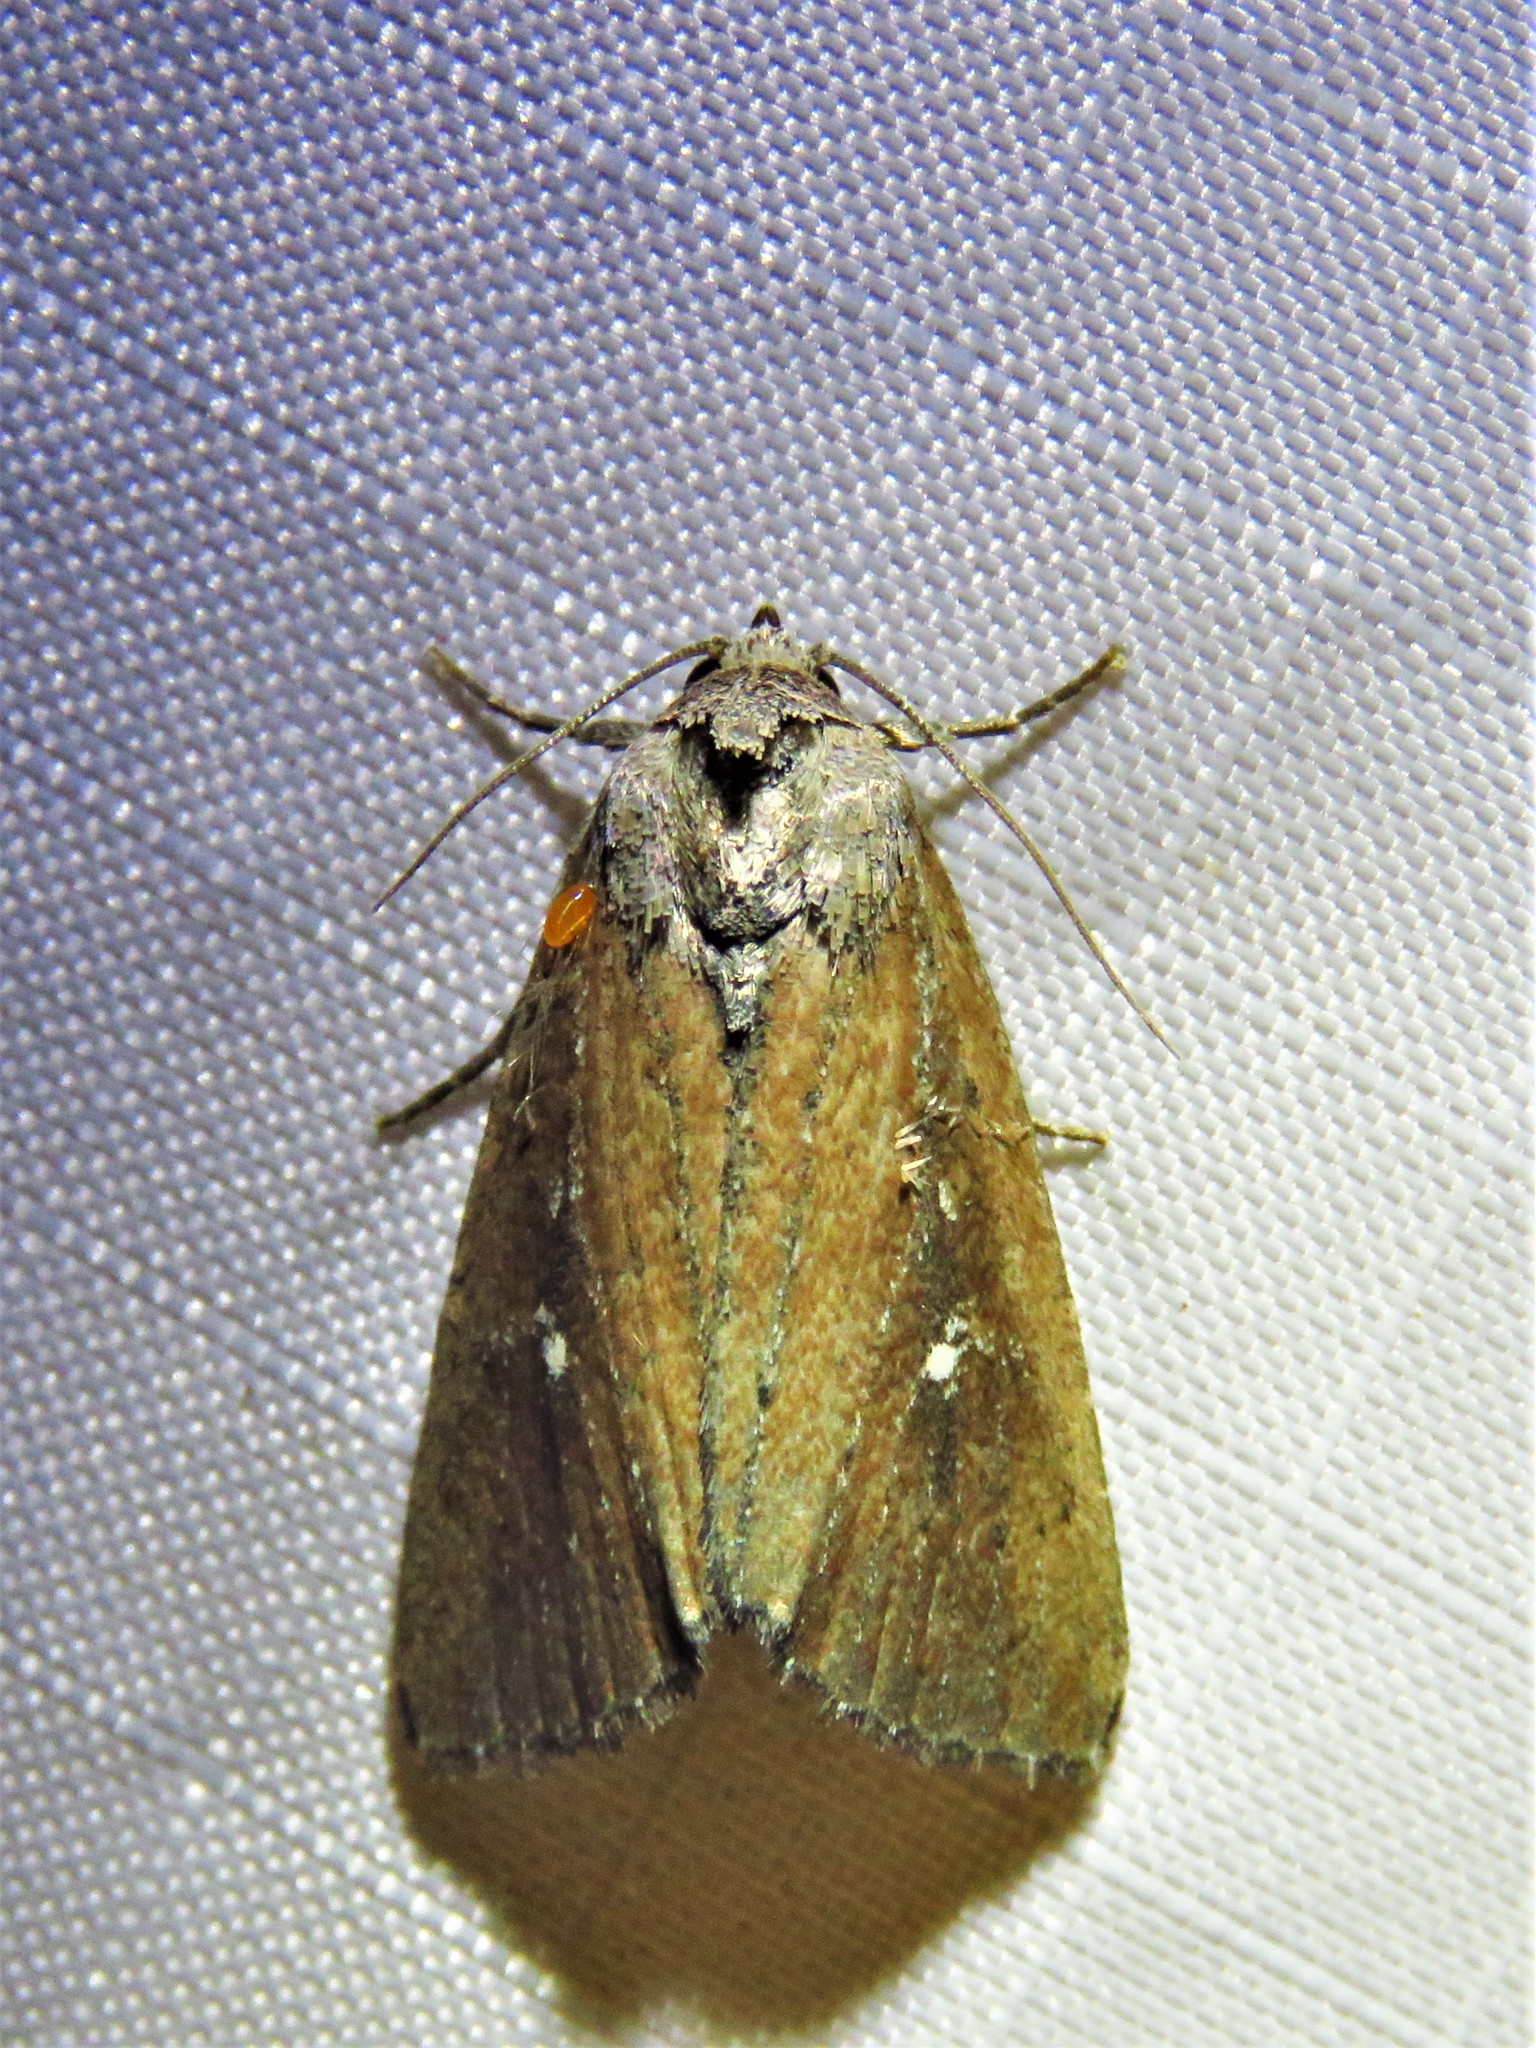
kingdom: Animalia
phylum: Arthropoda
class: Insecta
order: Lepidoptera
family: Noctuidae
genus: Condica
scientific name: Condica videns
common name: White-dotted groundling
